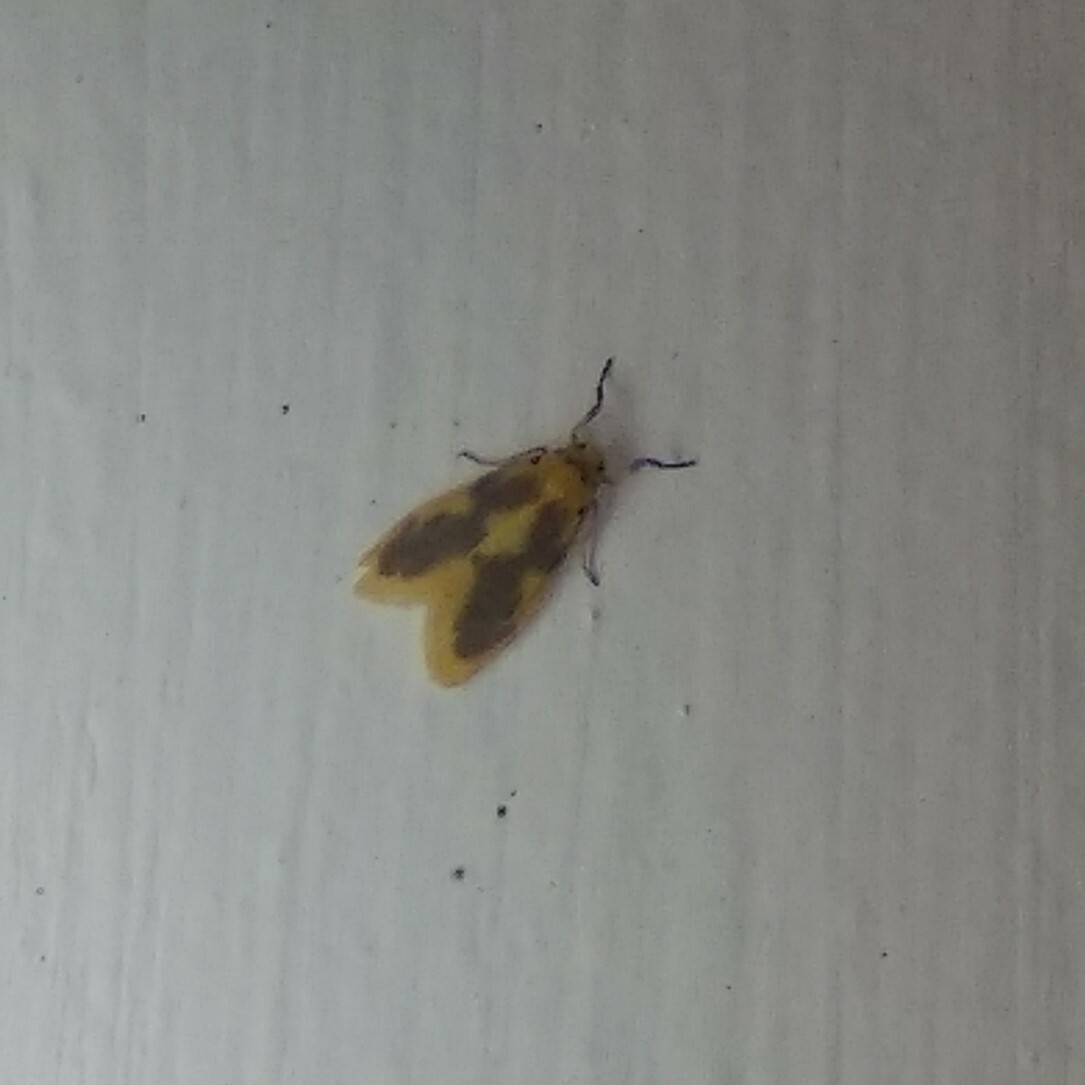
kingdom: Animalia
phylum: Arthropoda
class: Insecta
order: Lepidoptera
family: Erebidae
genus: Miltochrista
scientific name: Miltochrista undulata
